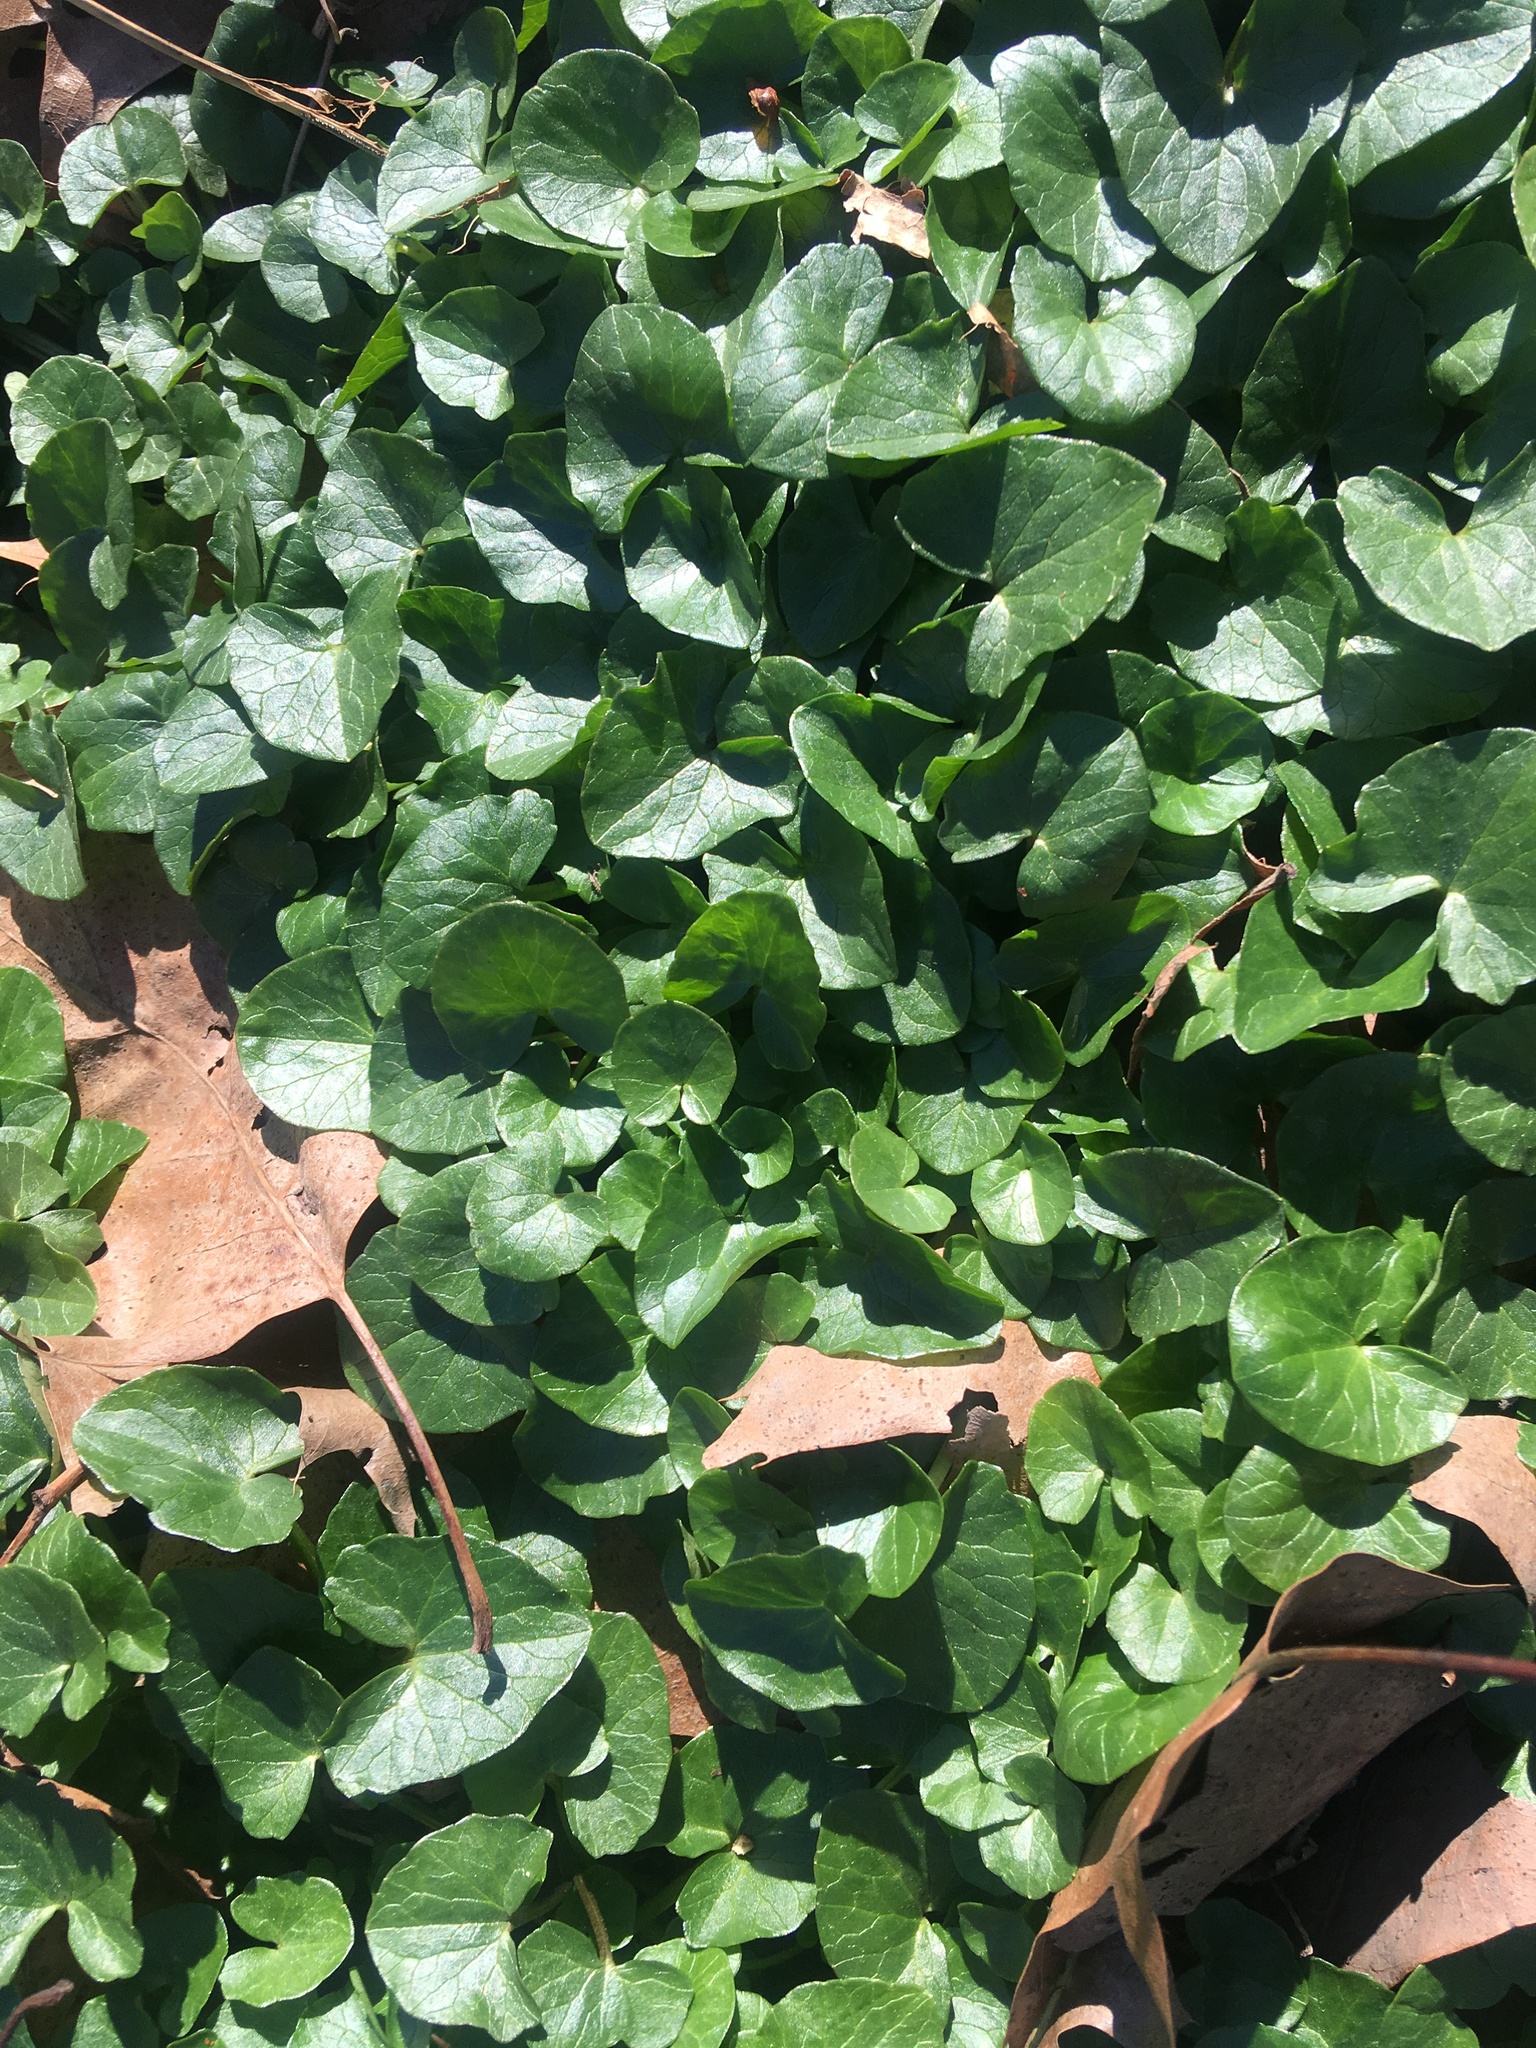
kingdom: Plantae
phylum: Tracheophyta
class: Magnoliopsida
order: Ranunculales
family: Ranunculaceae
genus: Ficaria
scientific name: Ficaria verna
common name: Lesser celandine
